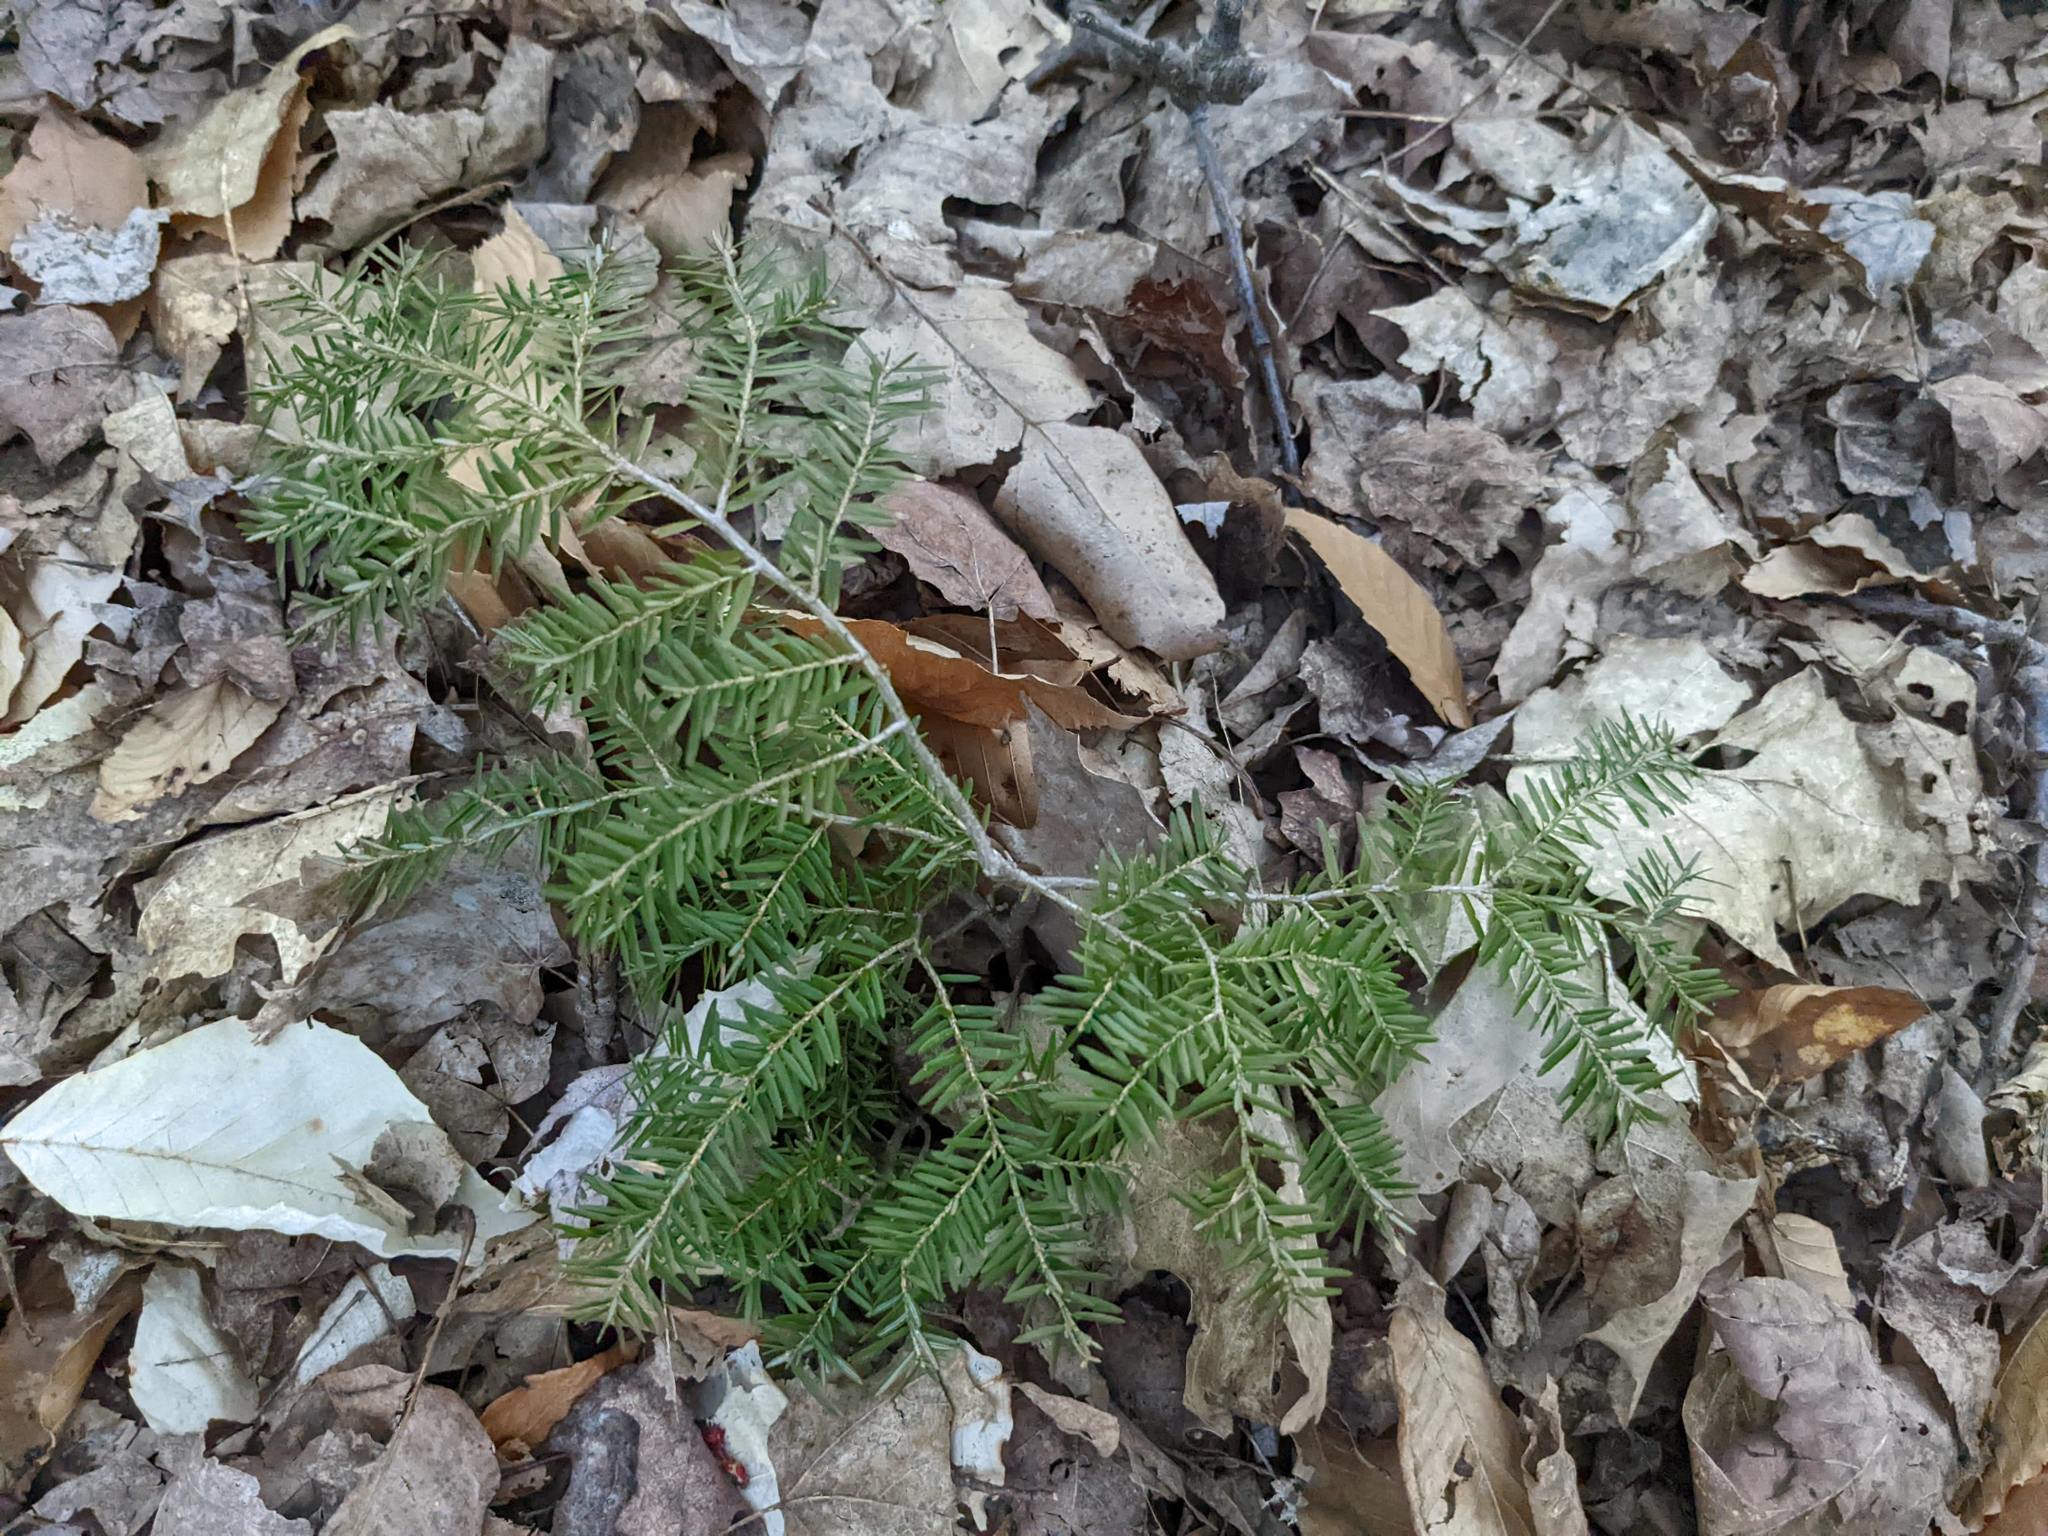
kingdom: Plantae
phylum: Tracheophyta
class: Pinopsida
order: Pinales
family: Pinaceae
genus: Tsuga
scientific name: Tsuga canadensis
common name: Eastern hemlock
